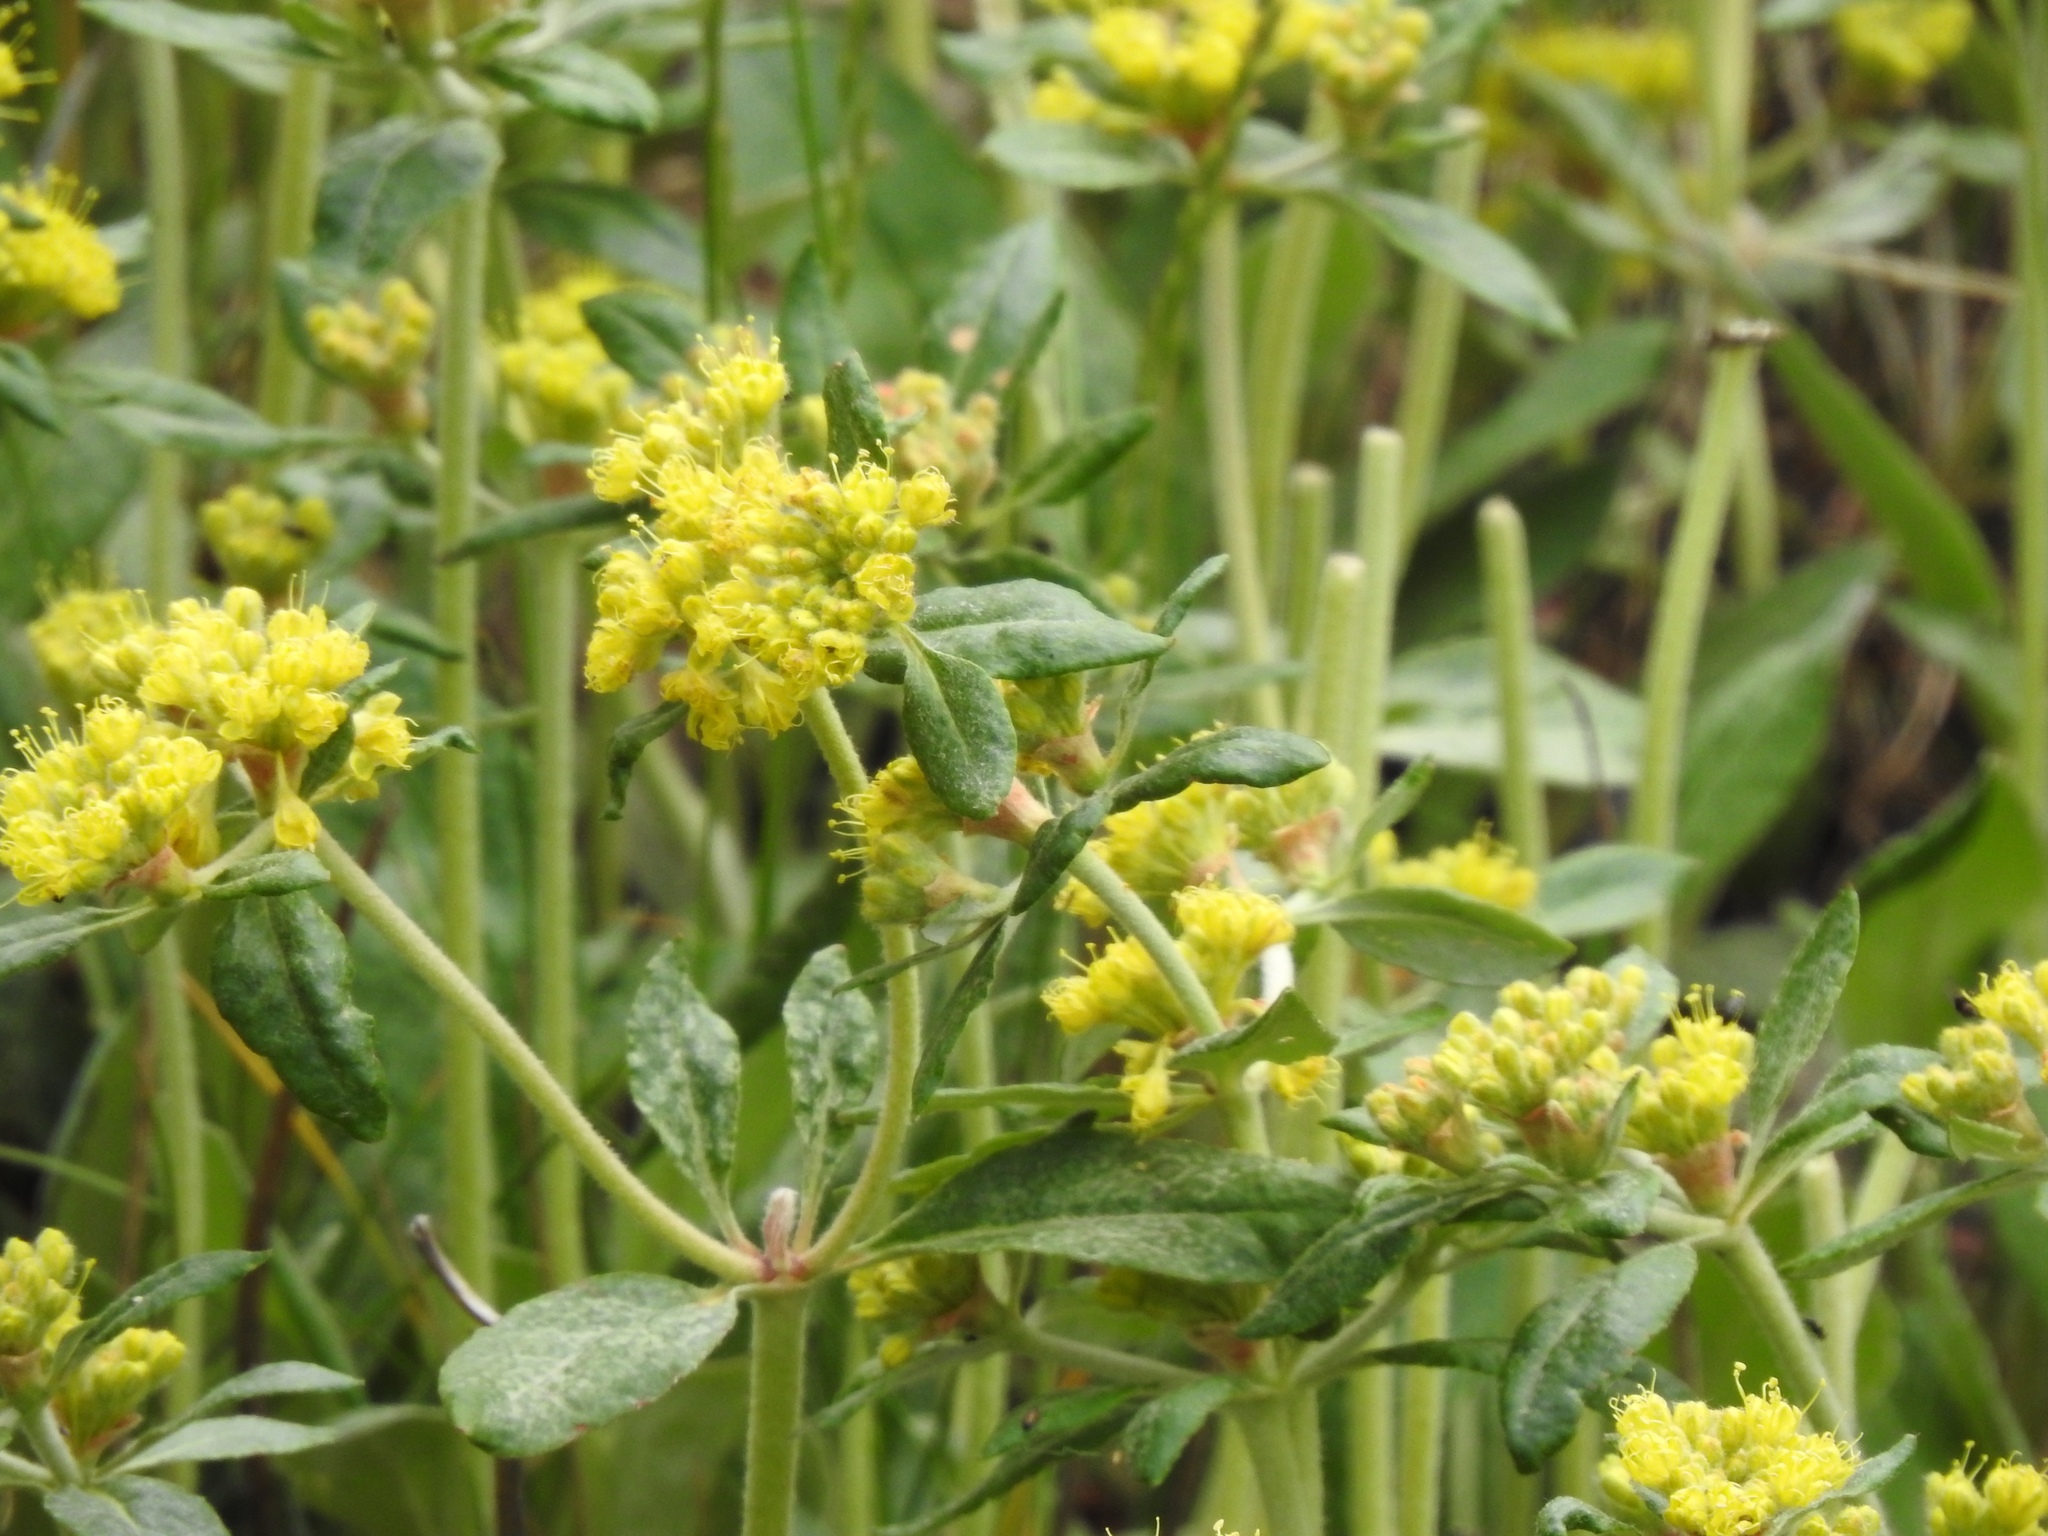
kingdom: Plantae
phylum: Tracheophyta
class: Magnoliopsida
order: Caryophyllales
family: Polygonaceae
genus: Eriogonum
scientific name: Eriogonum wootonii
